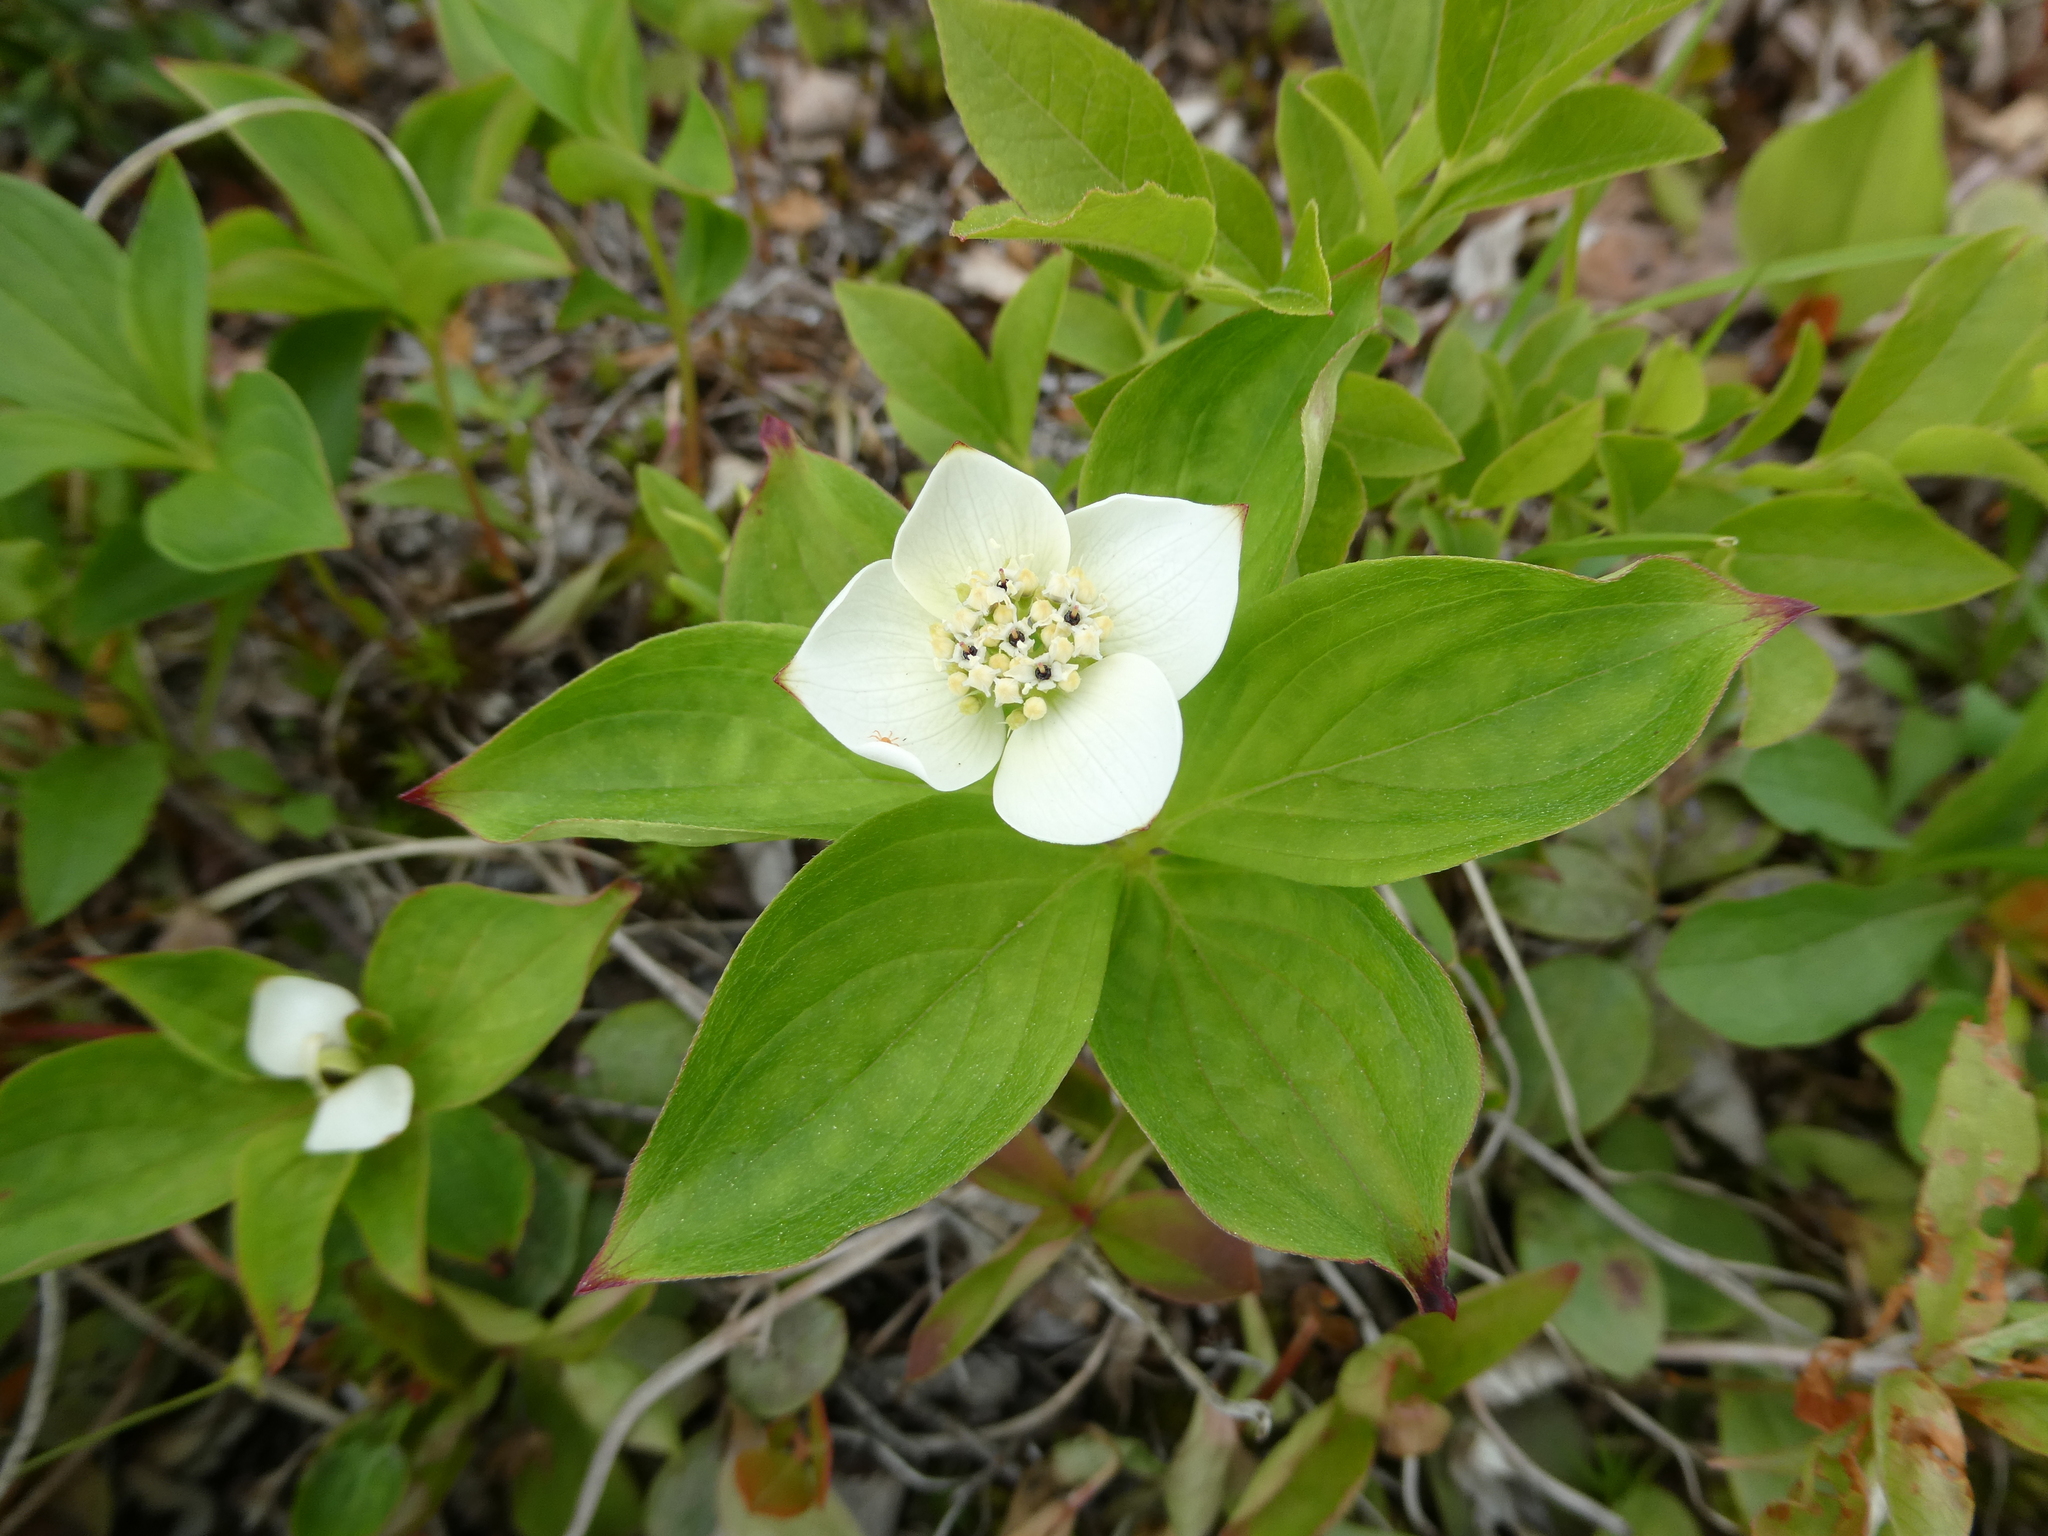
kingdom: Plantae
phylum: Tracheophyta
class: Magnoliopsida
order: Cornales
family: Cornaceae
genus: Cornus
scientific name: Cornus canadensis
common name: Creeping dogwood
